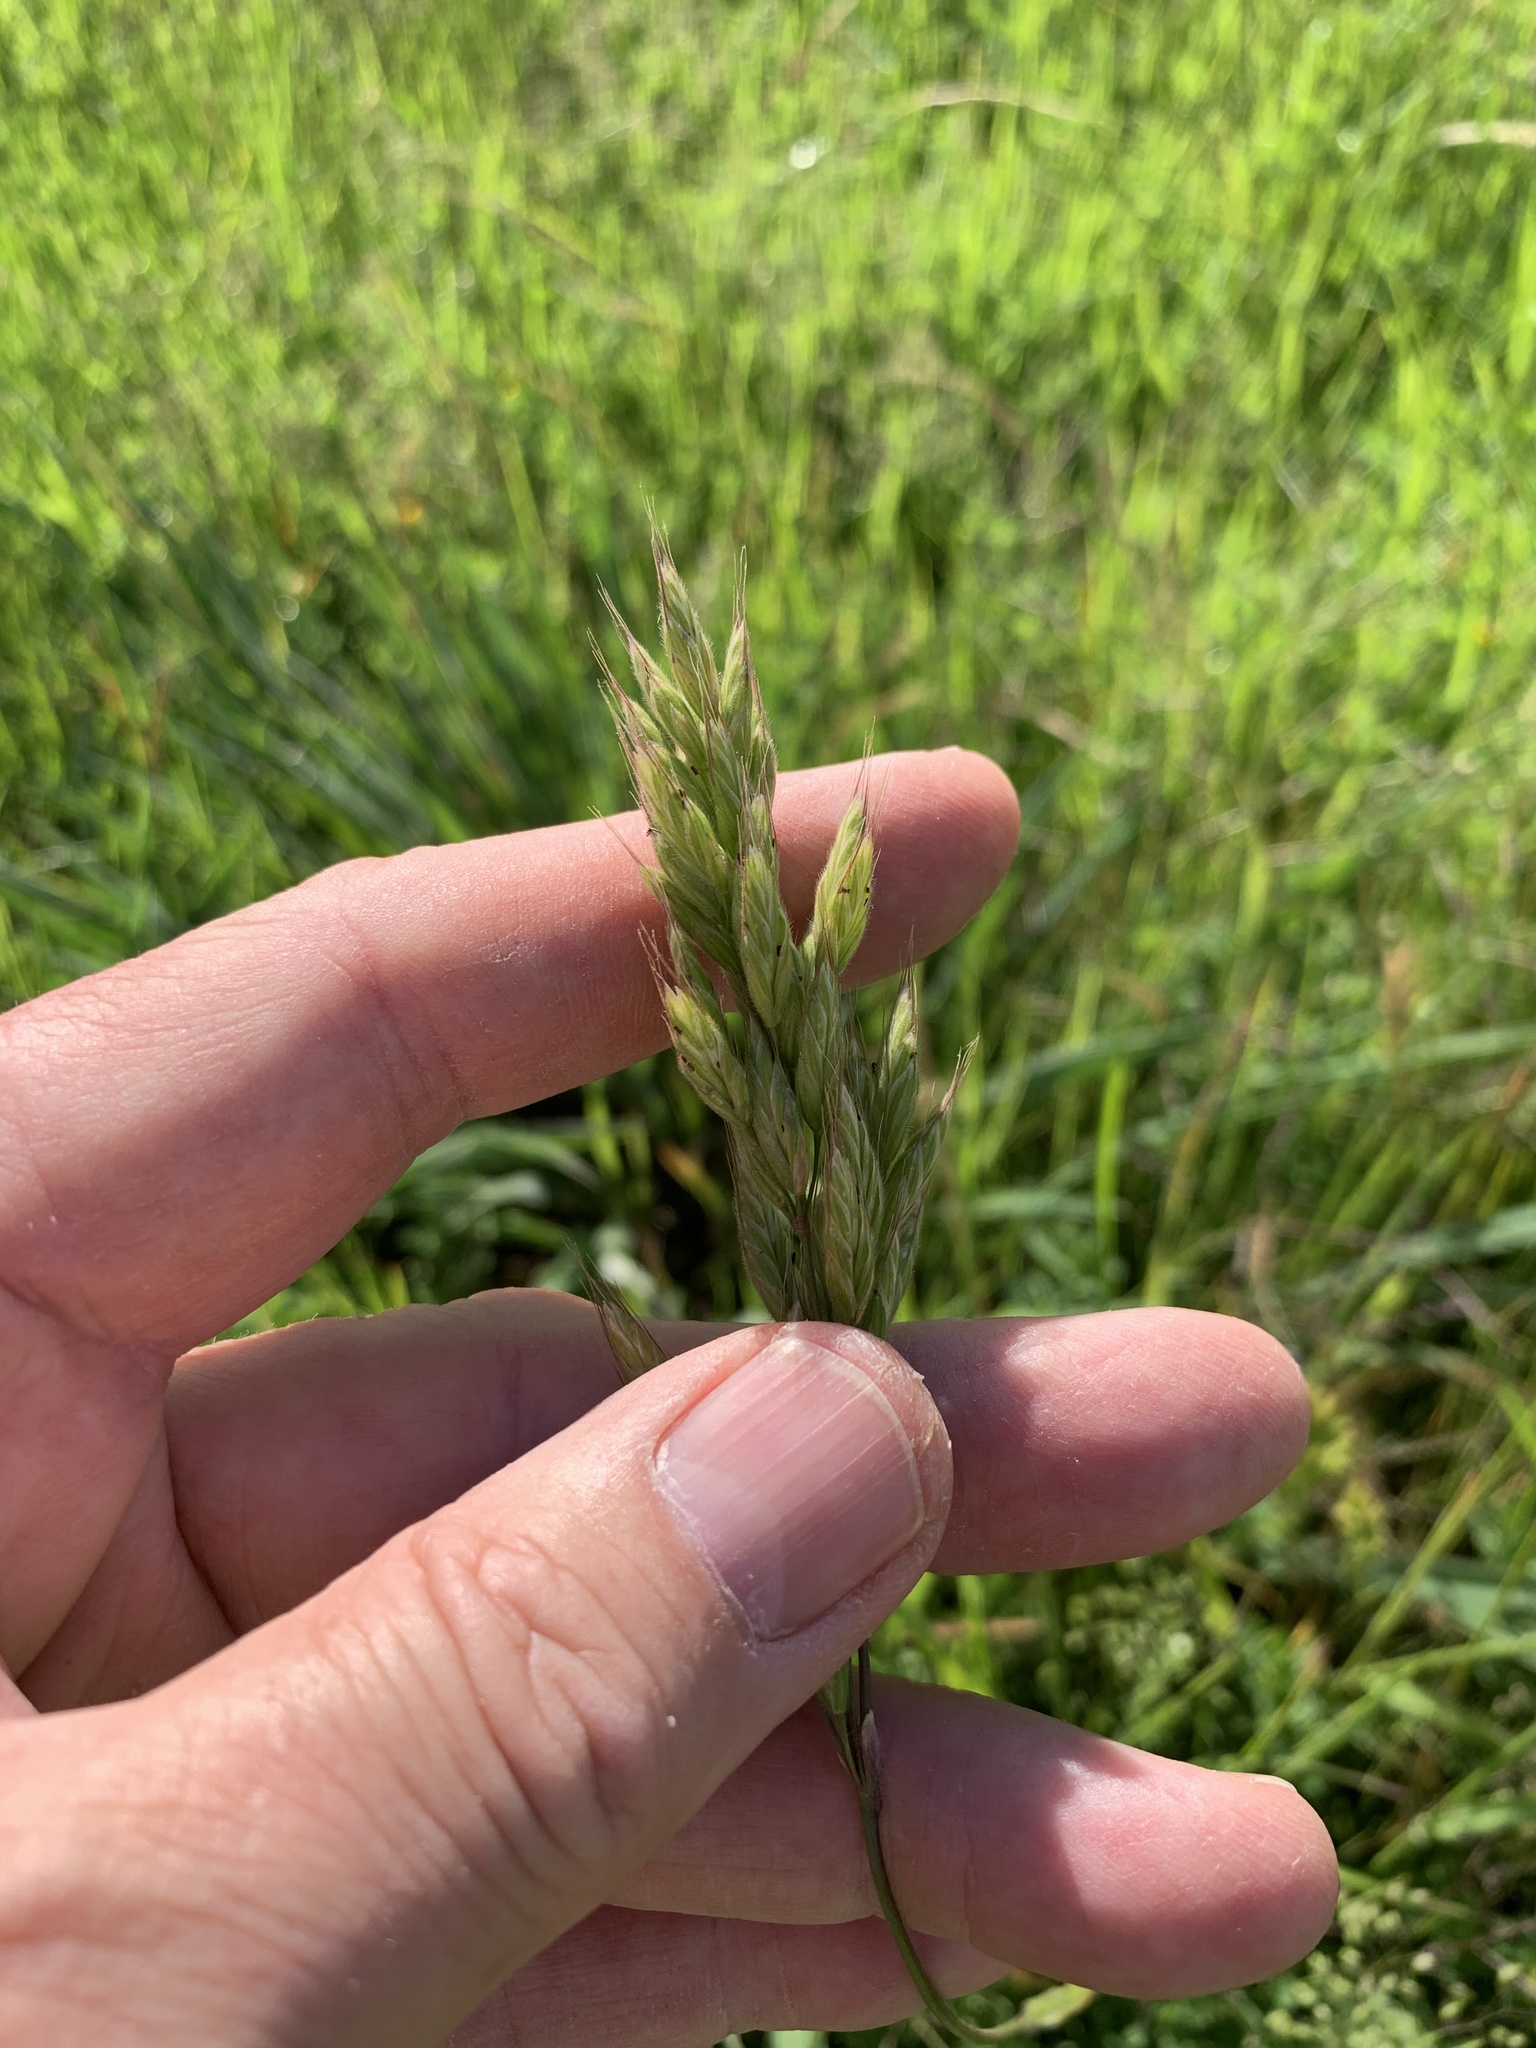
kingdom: Plantae
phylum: Tracheophyta
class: Liliopsida
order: Poales
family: Poaceae
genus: Bromus
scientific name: Bromus hordeaceus
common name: Soft brome
